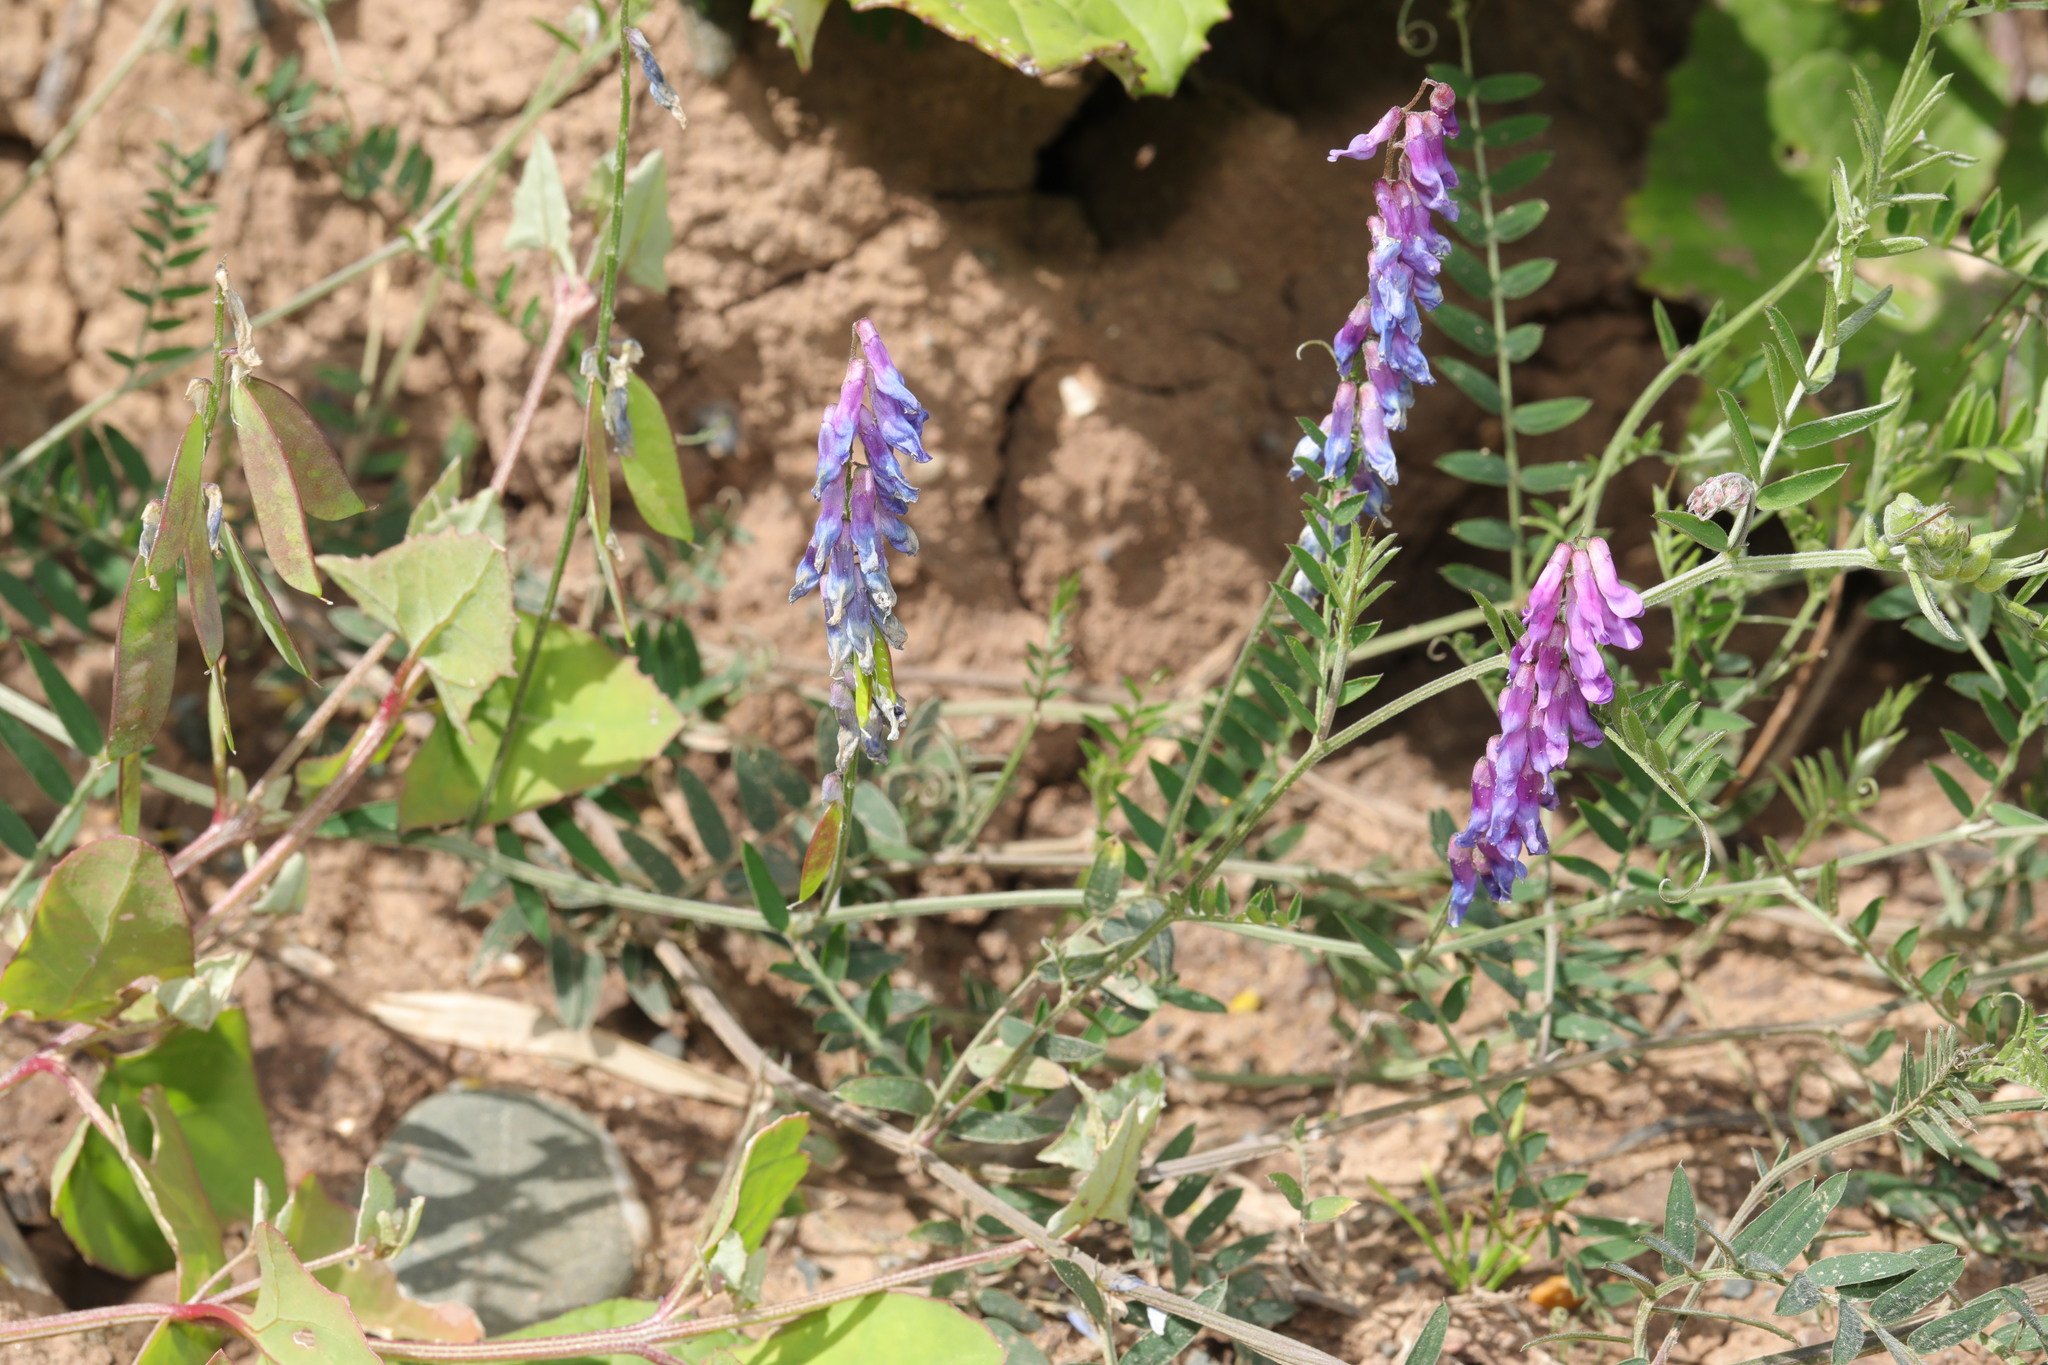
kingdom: Plantae
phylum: Tracheophyta
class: Magnoliopsida
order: Fabales
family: Fabaceae
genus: Vicia
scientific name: Vicia cracca
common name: Bird vetch
